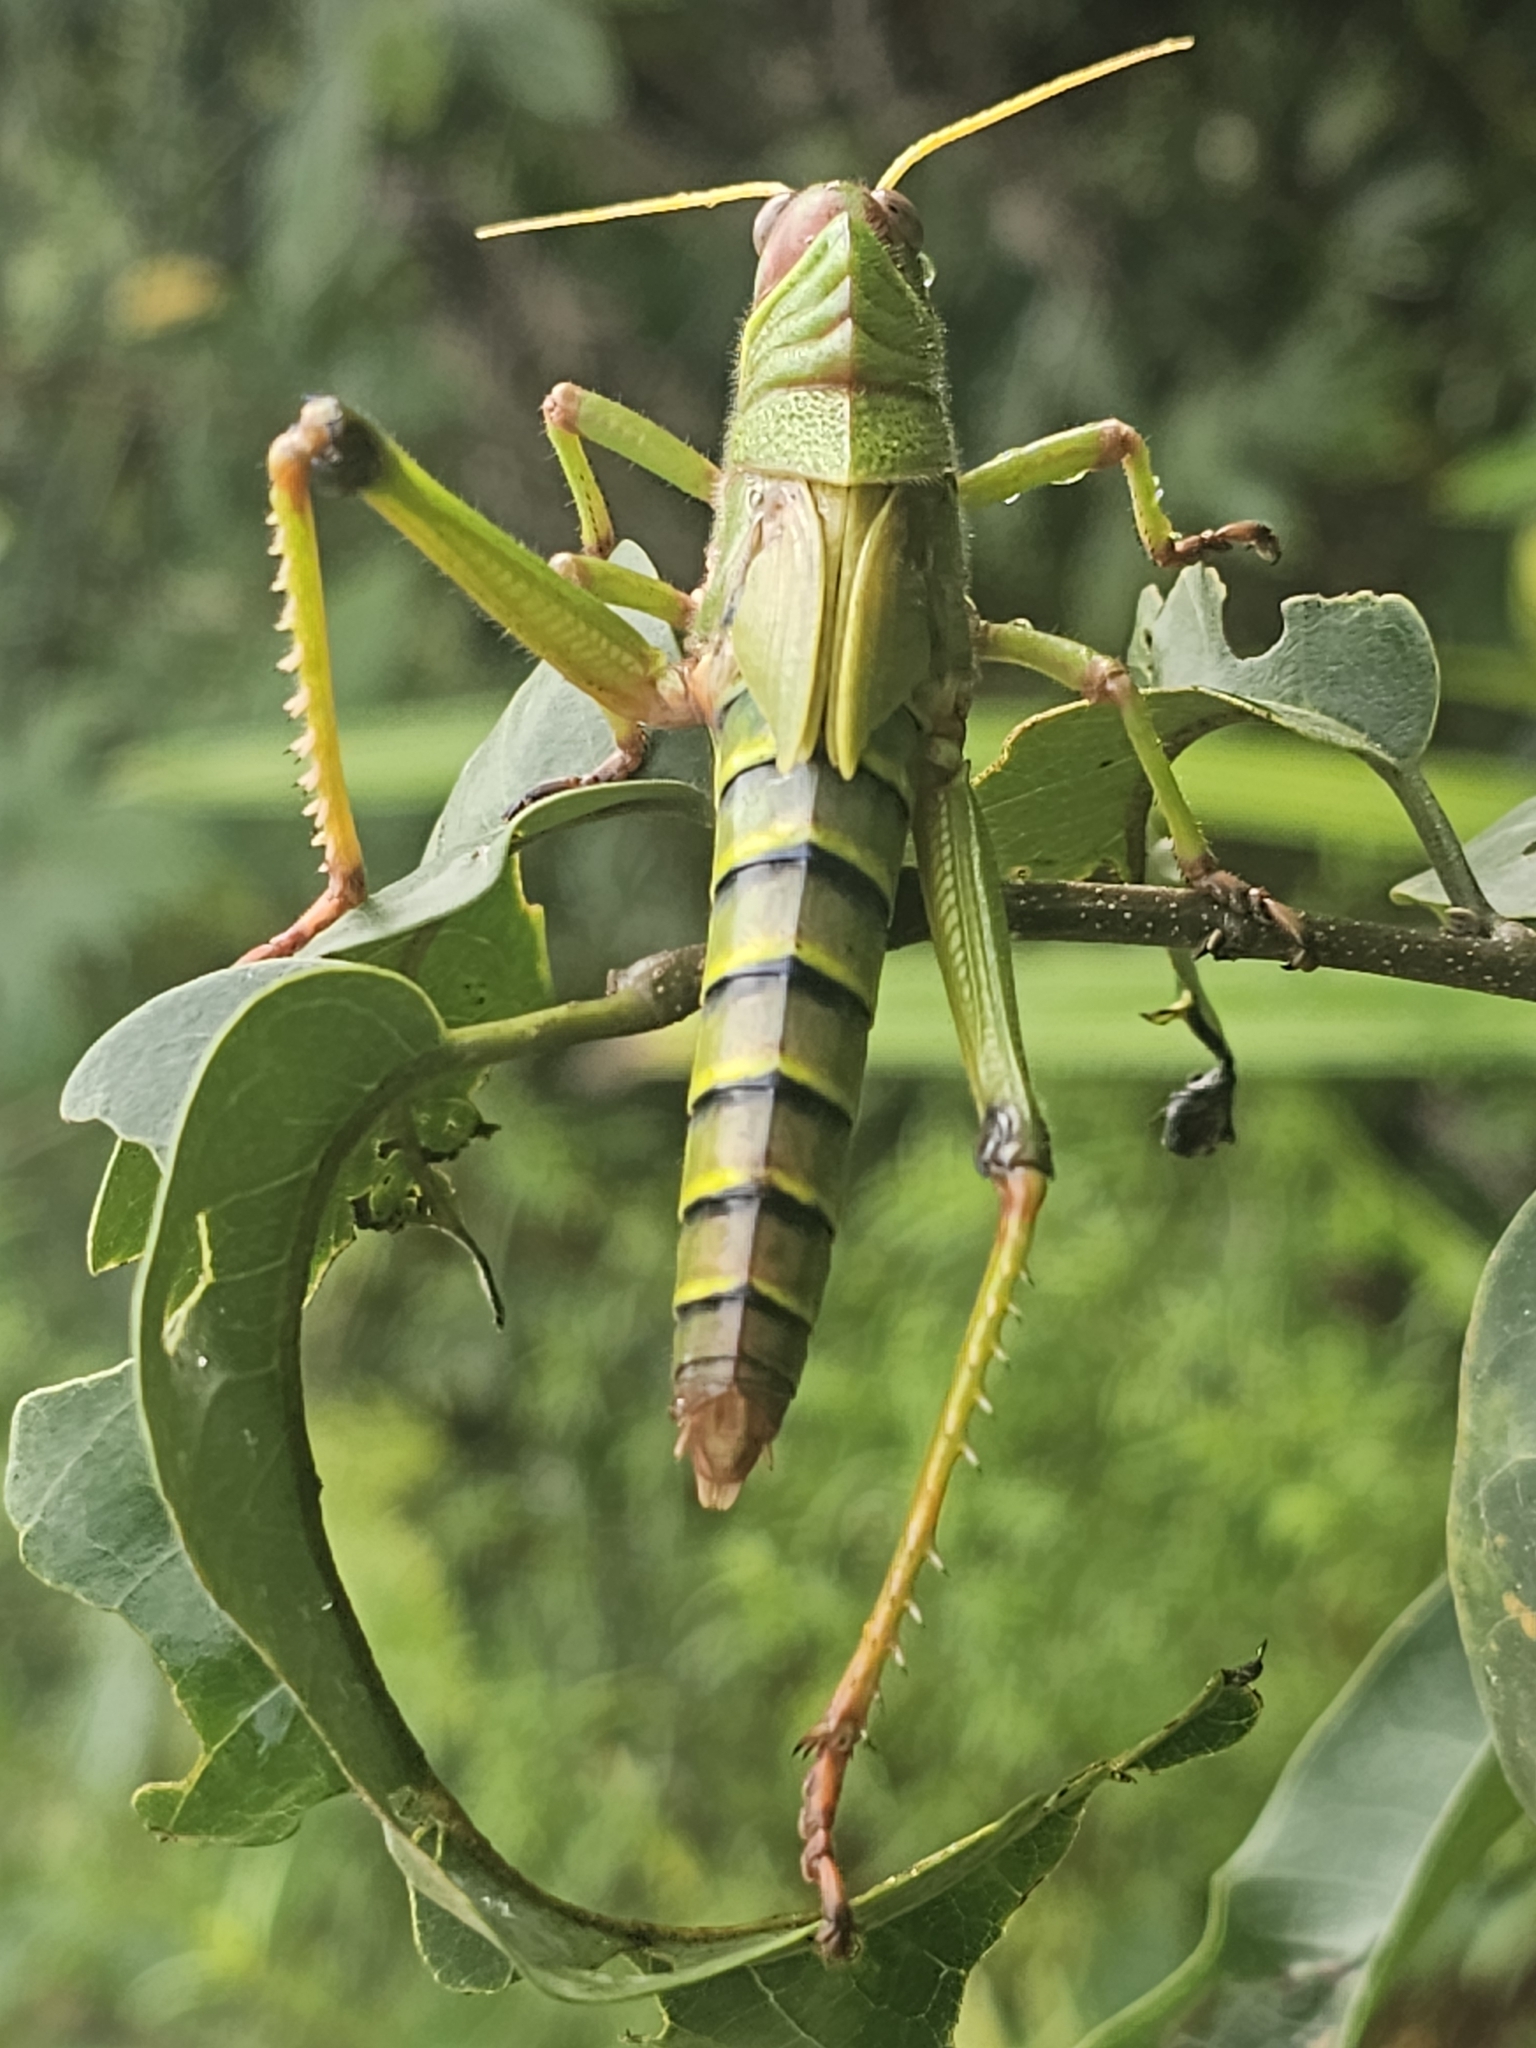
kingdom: Animalia
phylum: Arthropoda
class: Insecta
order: Orthoptera
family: Romaleidae
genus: Tropidacris
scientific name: Tropidacris collaris
